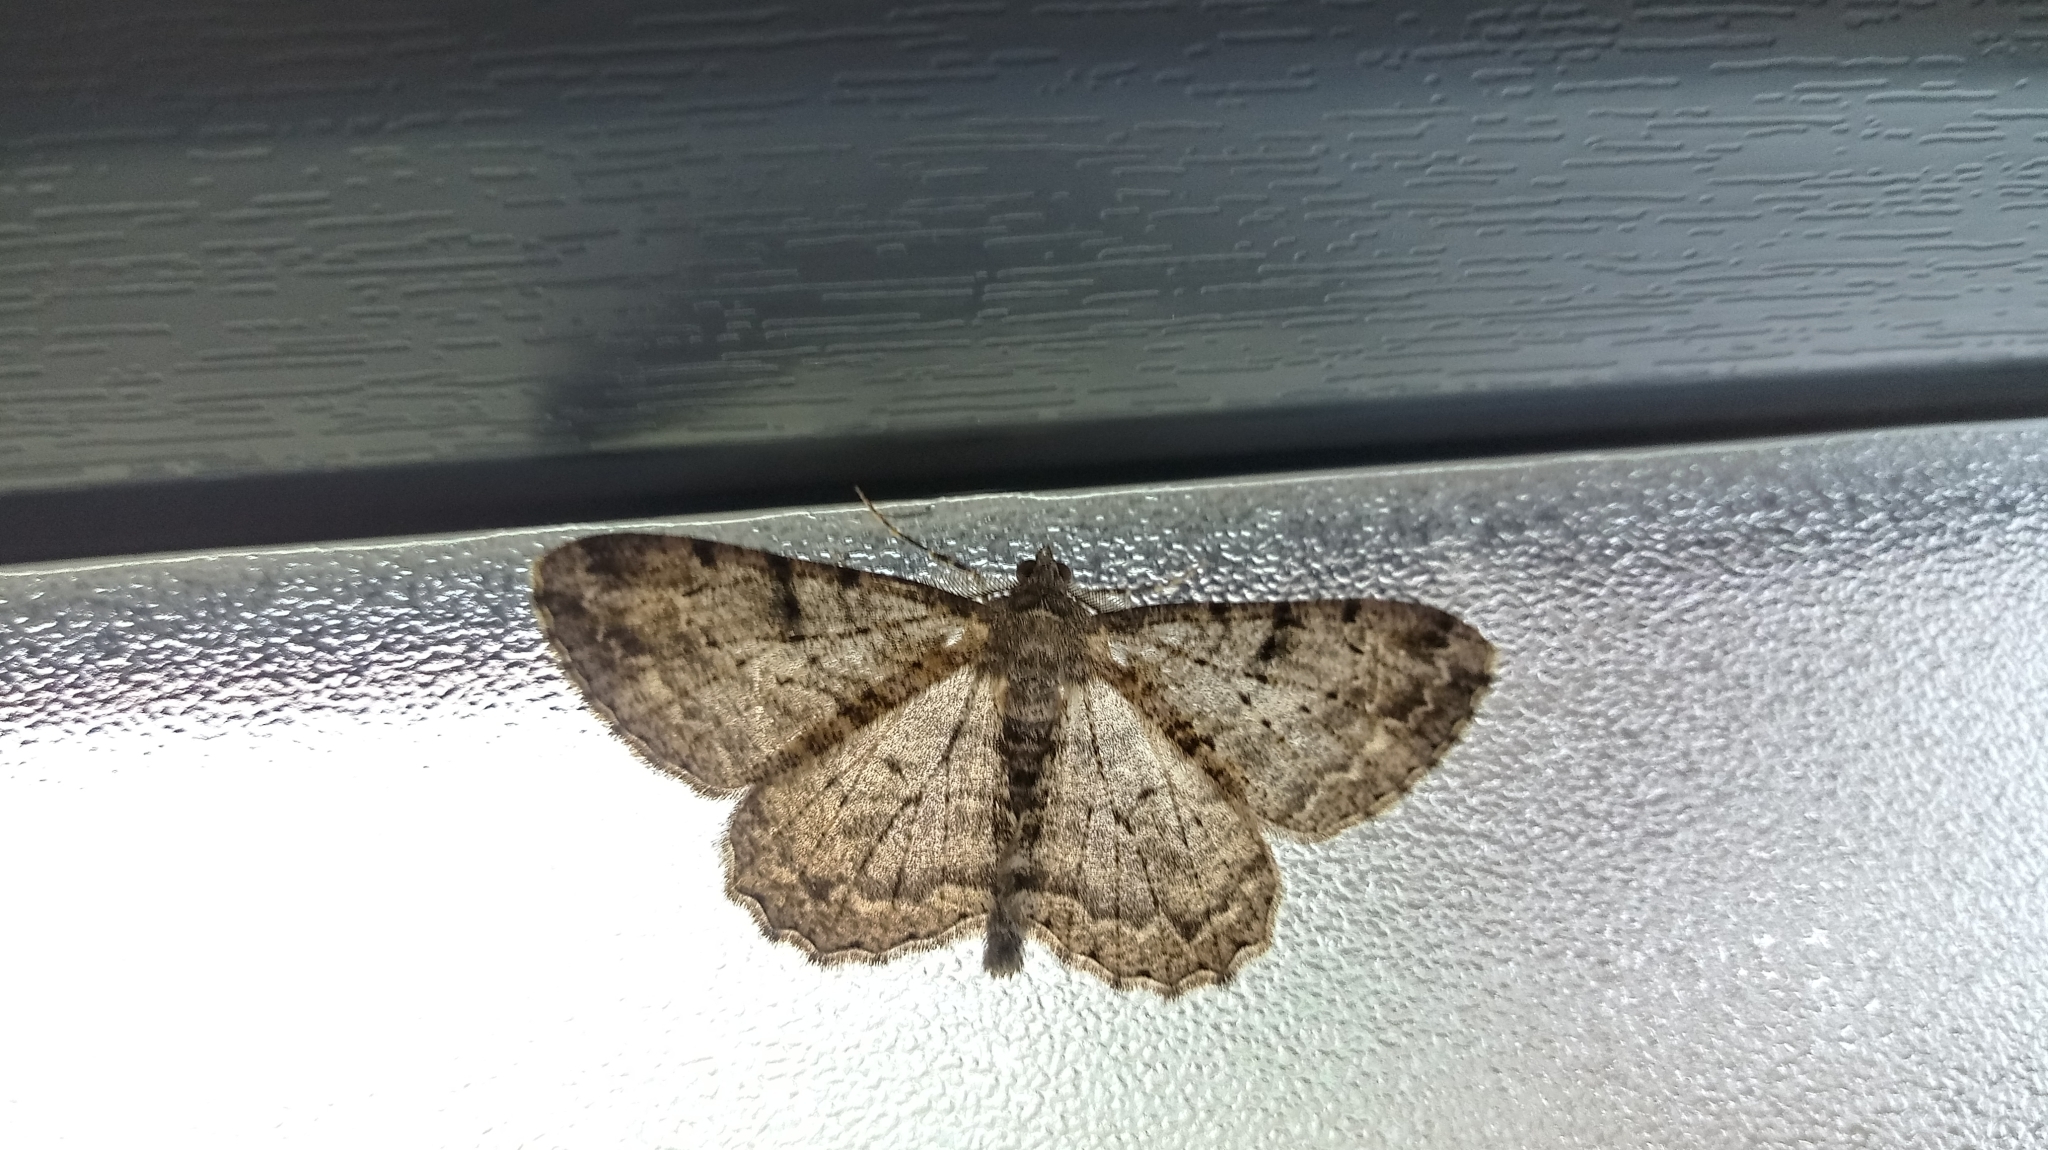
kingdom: Animalia
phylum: Arthropoda
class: Insecta
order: Lepidoptera
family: Geometridae
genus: Peribatodes
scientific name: Peribatodes rhomboidaria
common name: Willow beauty
